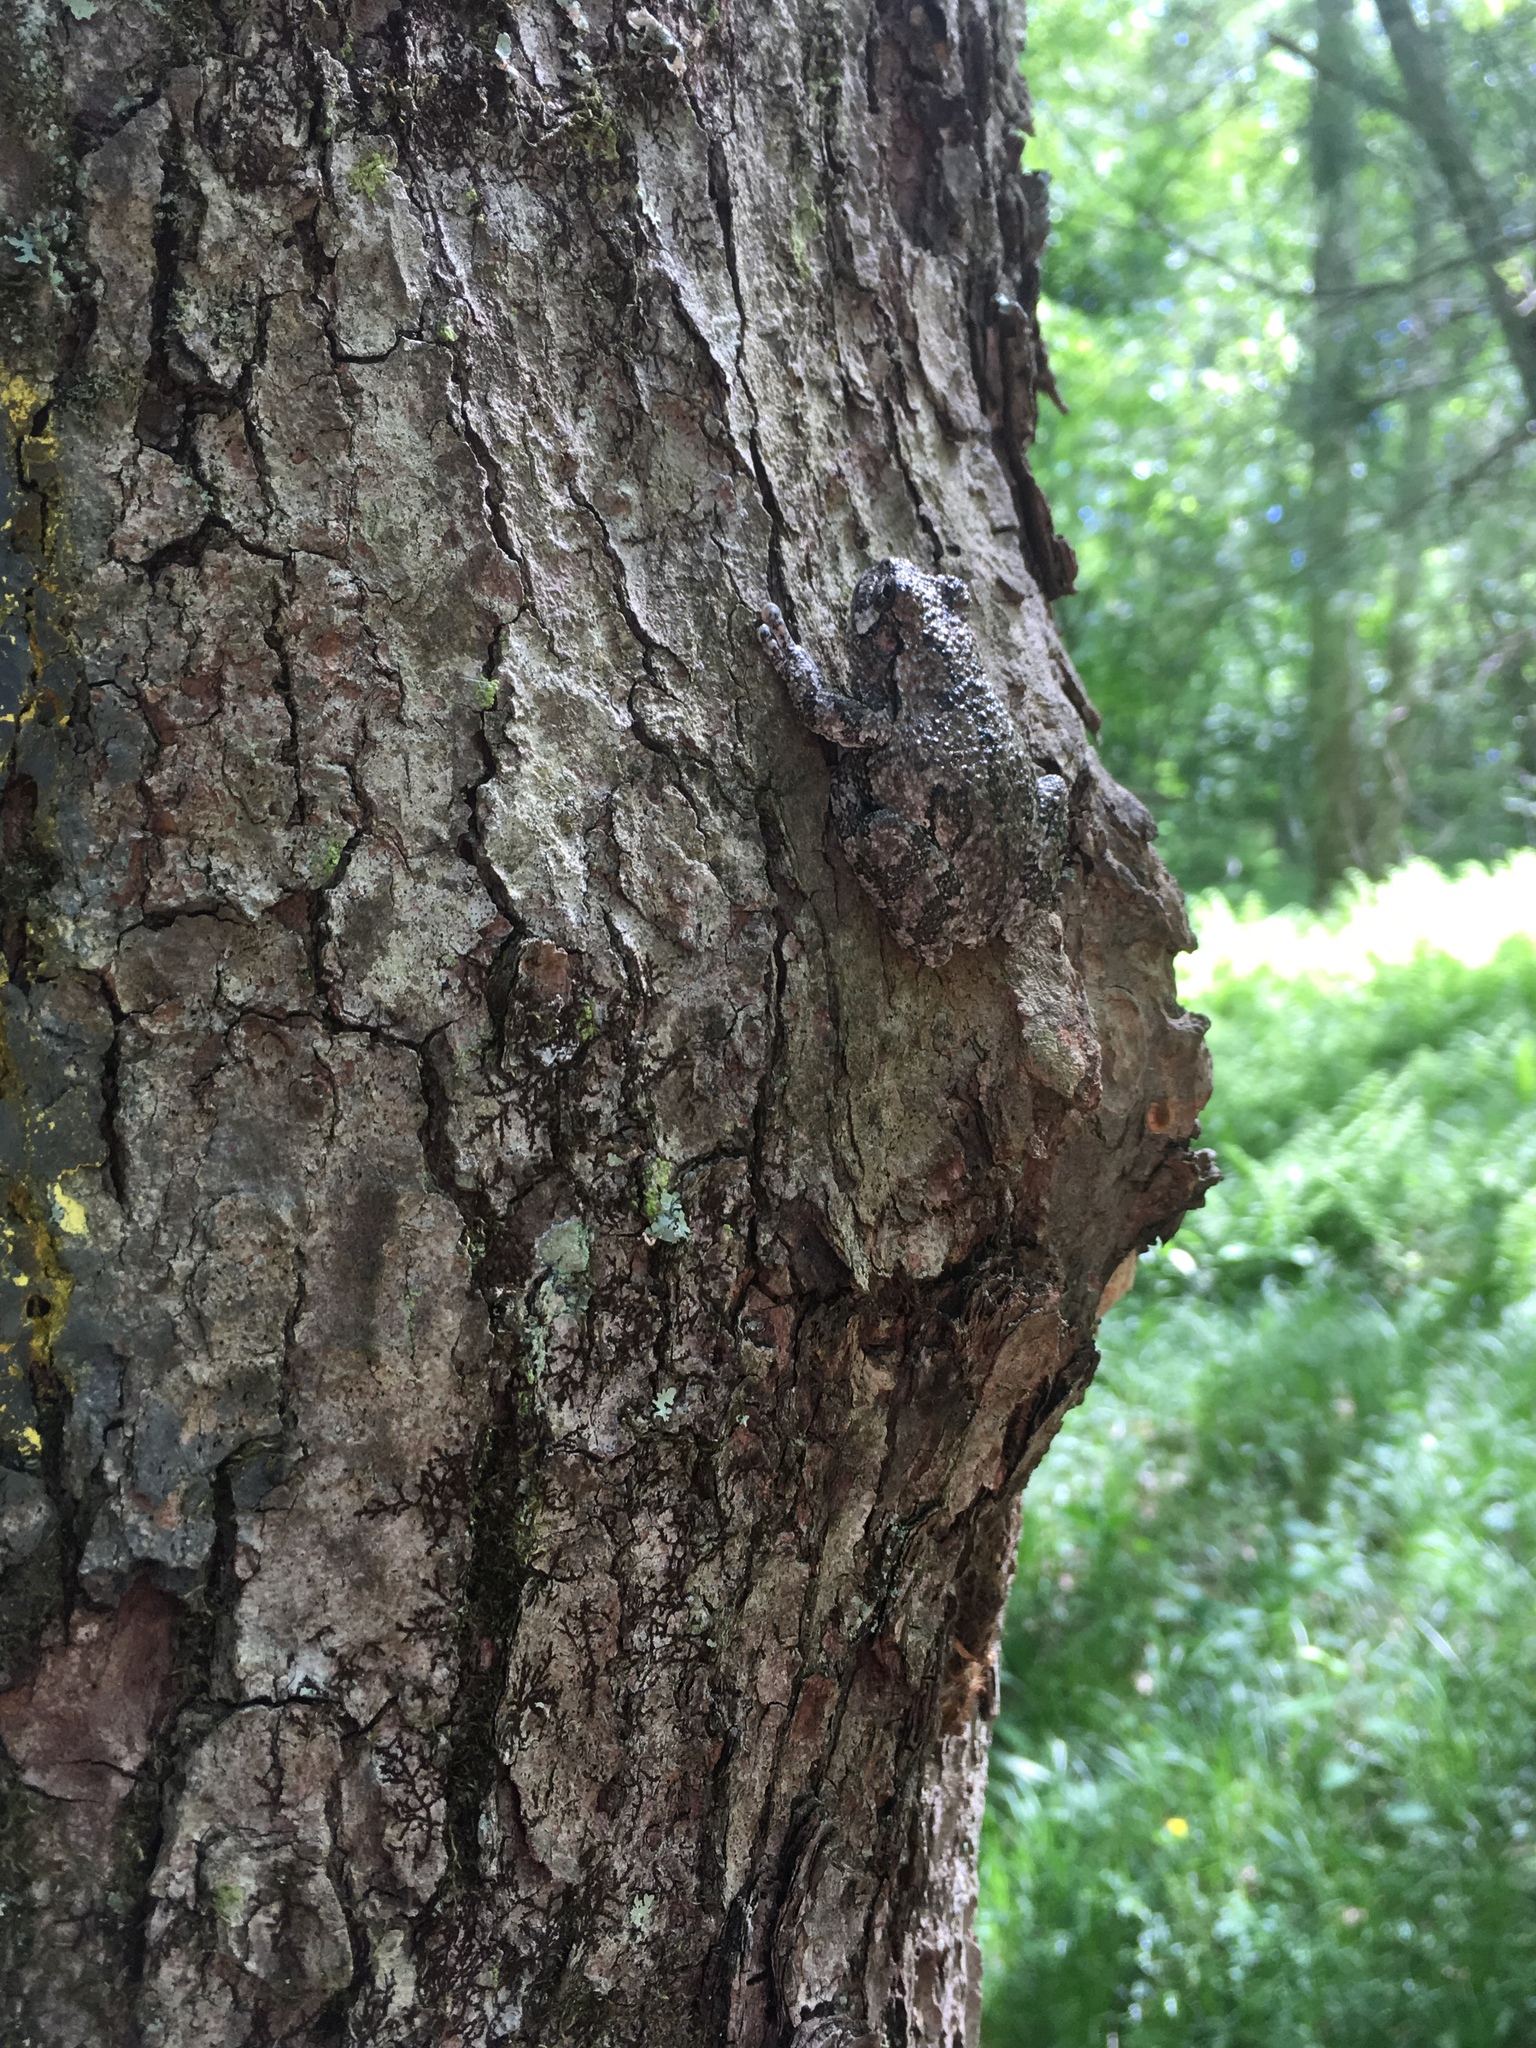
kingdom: Animalia
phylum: Chordata
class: Amphibia
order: Anura
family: Hylidae
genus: Dryophytes
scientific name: Dryophytes versicolor
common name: Gray treefrog
